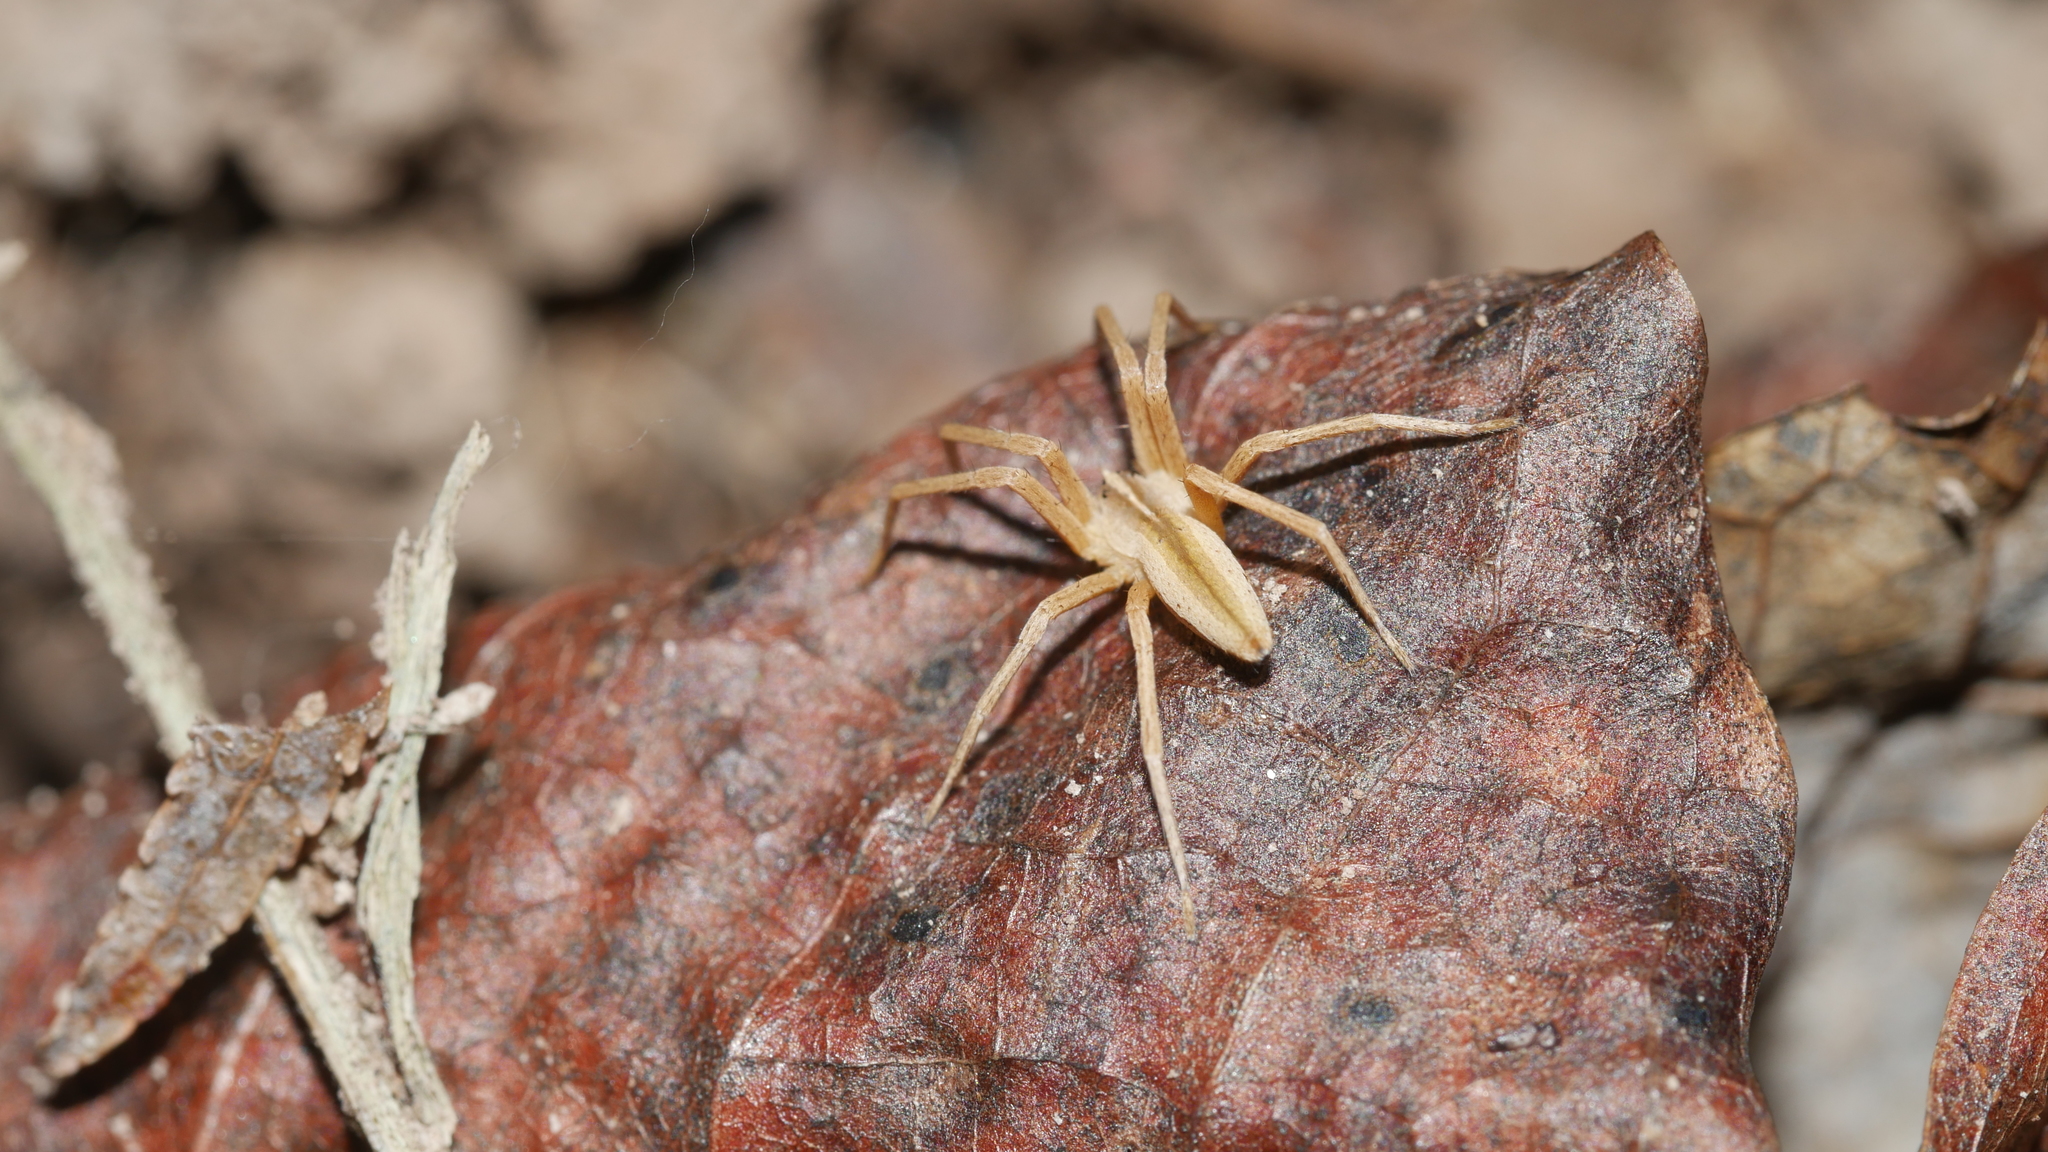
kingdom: Animalia
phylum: Arthropoda
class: Arachnida
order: Araneae
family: Pisauridae
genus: Pisaurina
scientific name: Pisaurina dubia
